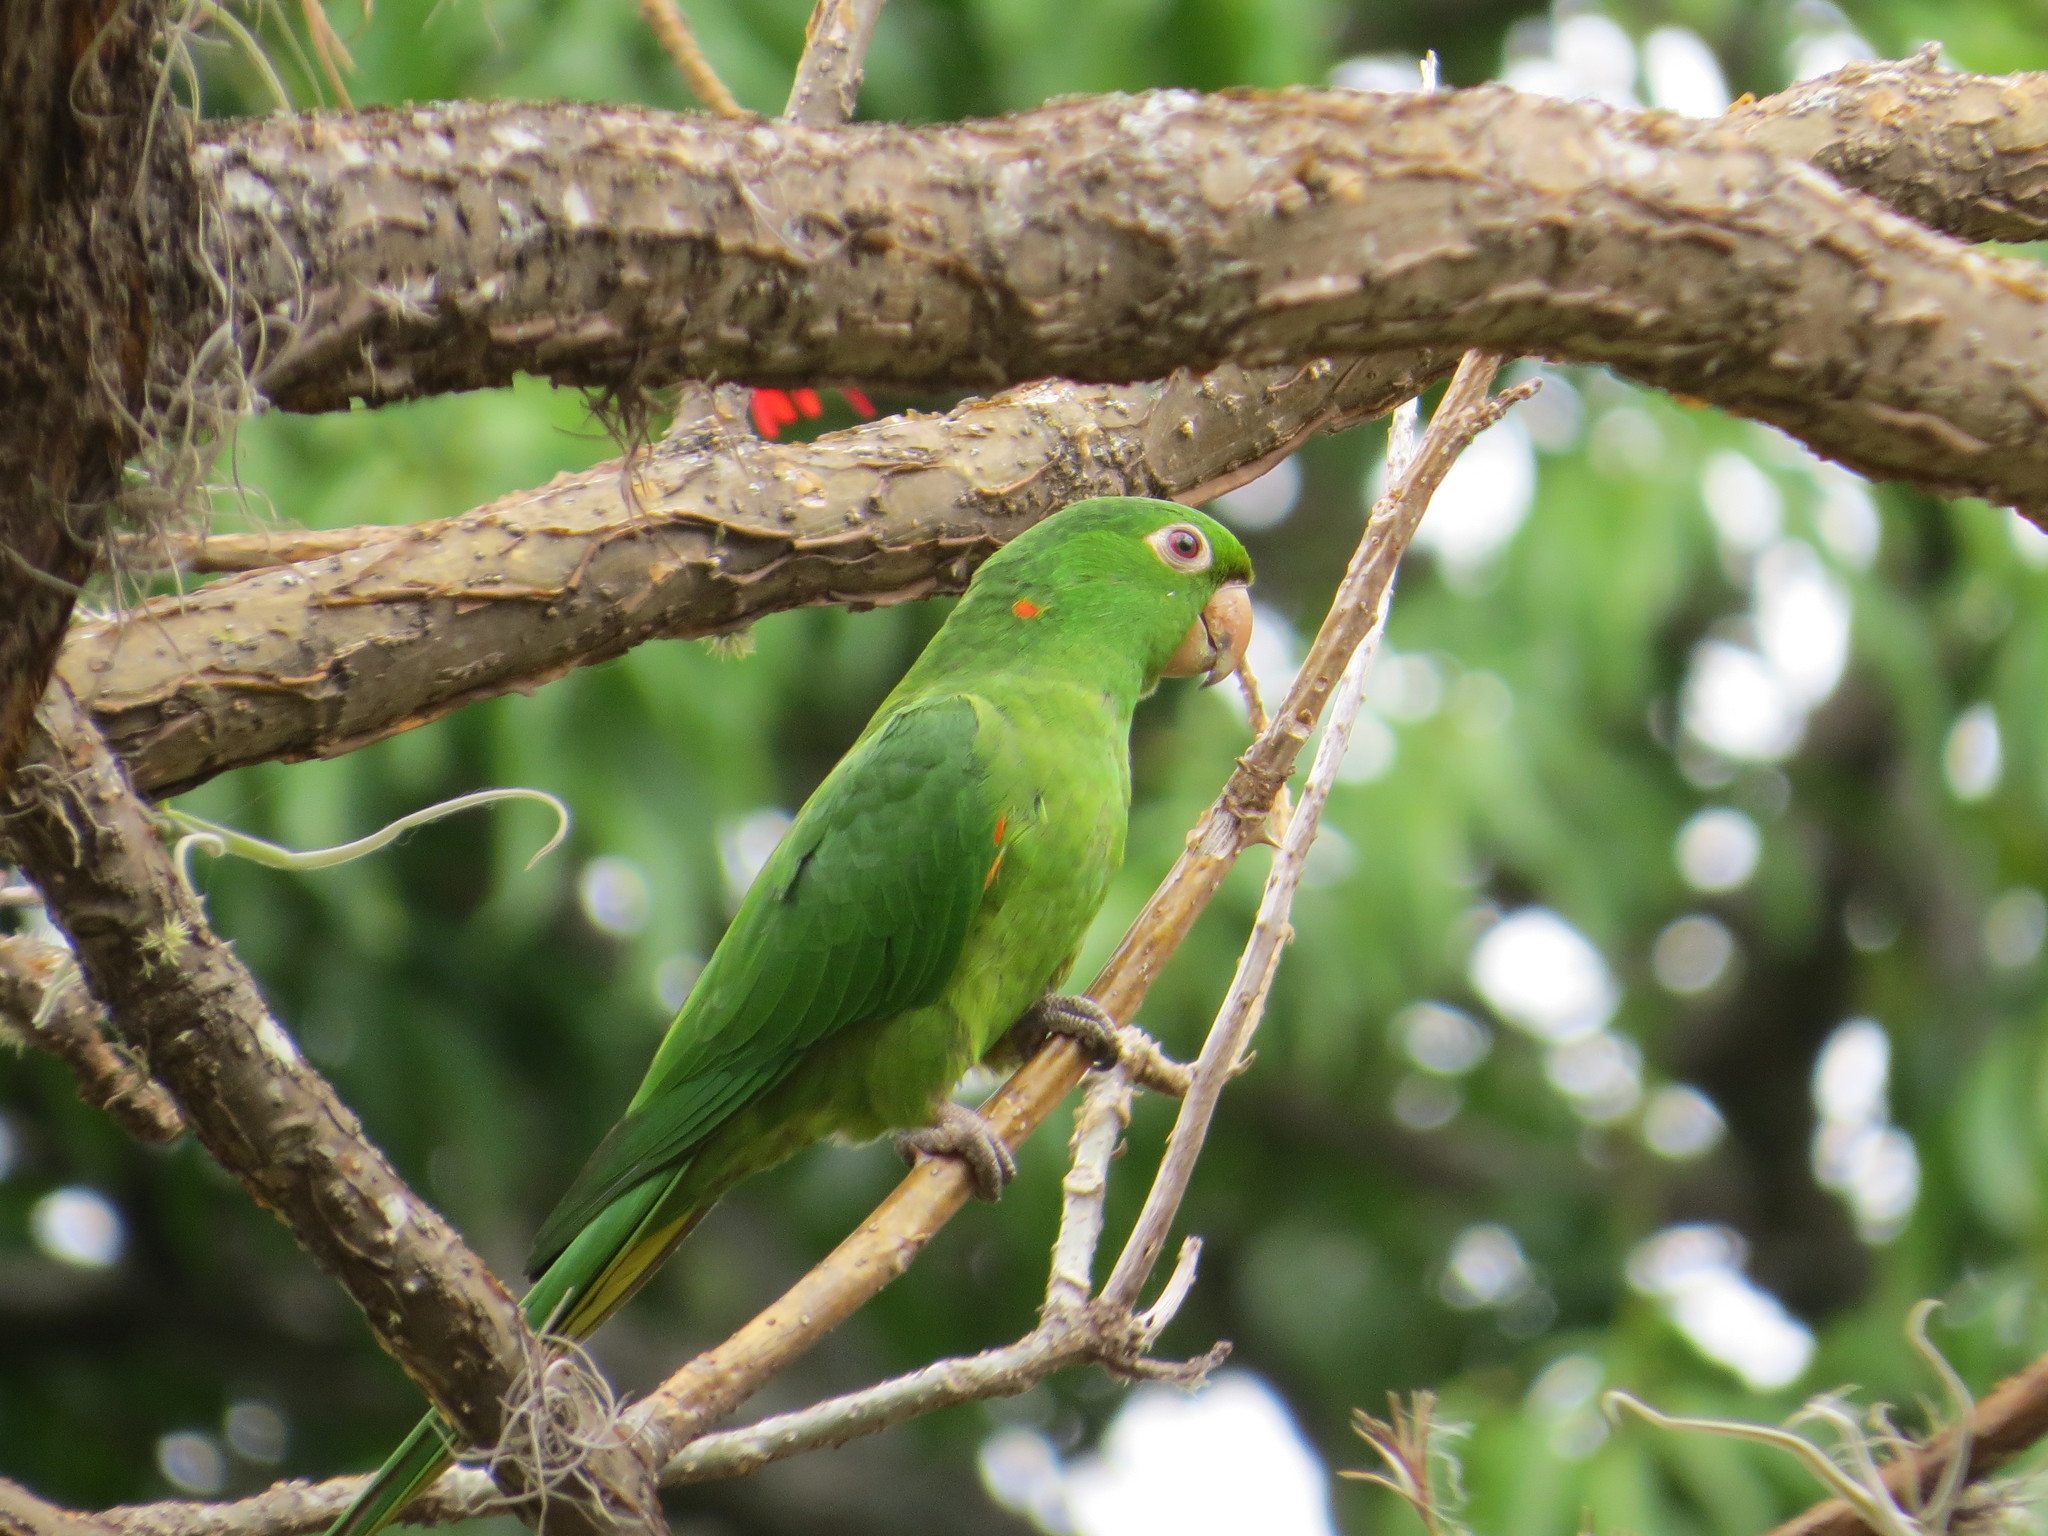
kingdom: Animalia
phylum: Chordata
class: Aves
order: Psittaciformes
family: Psittacidae
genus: Aratinga
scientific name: Aratinga leucophthalma
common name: White-eyed parakeet
